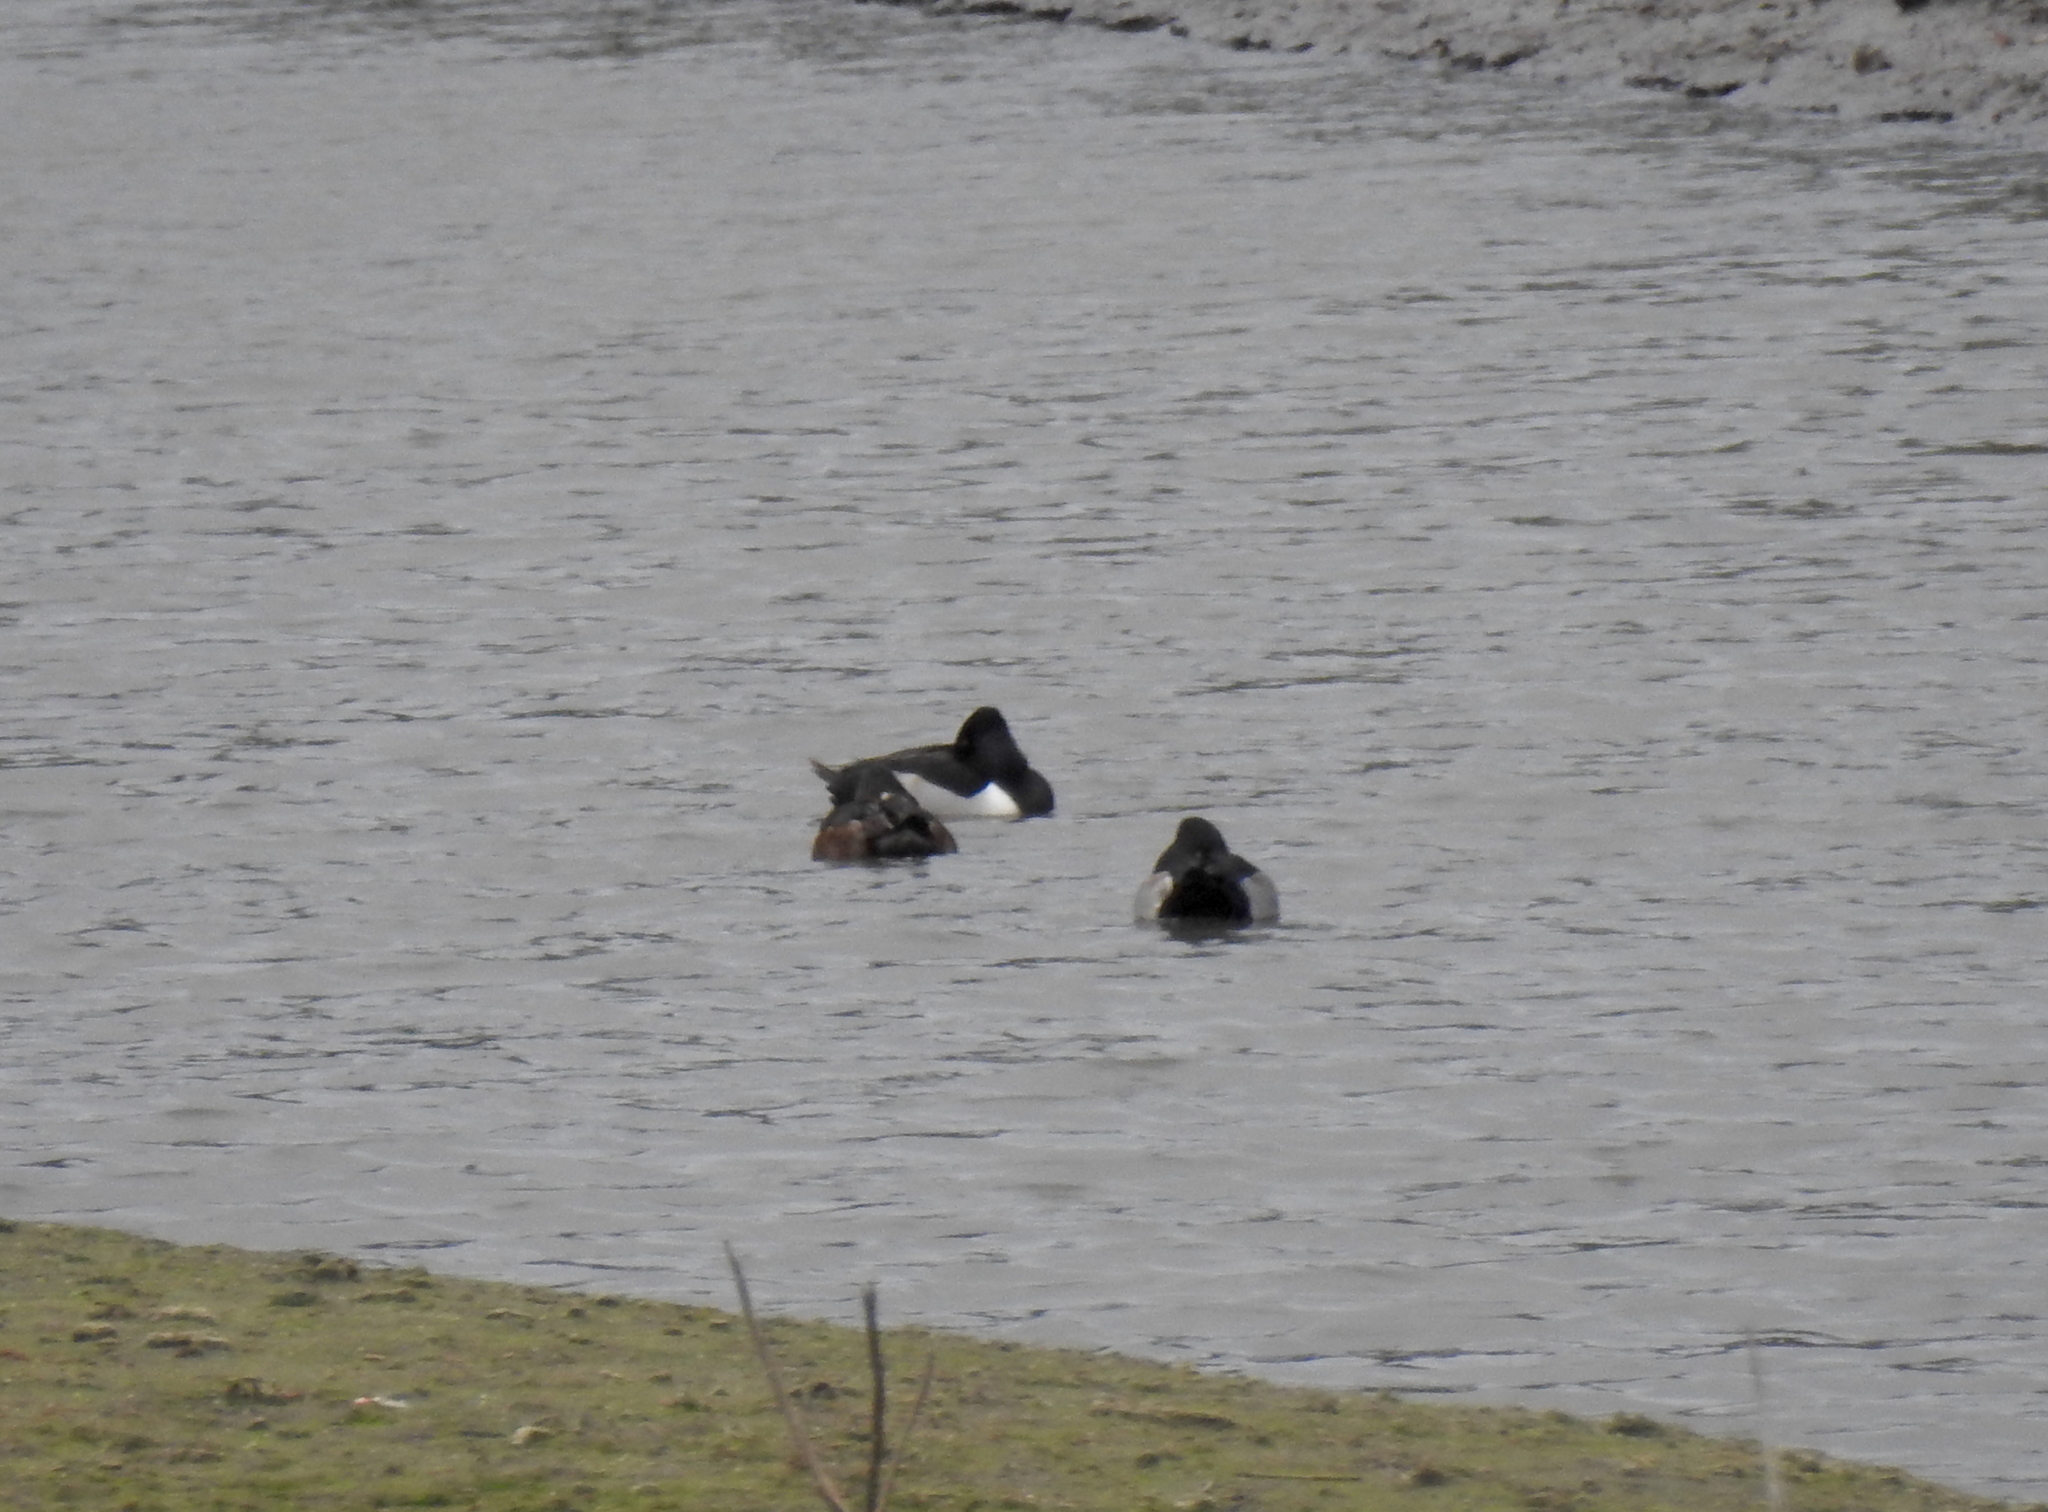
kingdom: Animalia
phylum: Chordata
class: Aves
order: Anseriformes
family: Anatidae
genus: Aythya
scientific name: Aythya collaris
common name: Ring-necked duck
